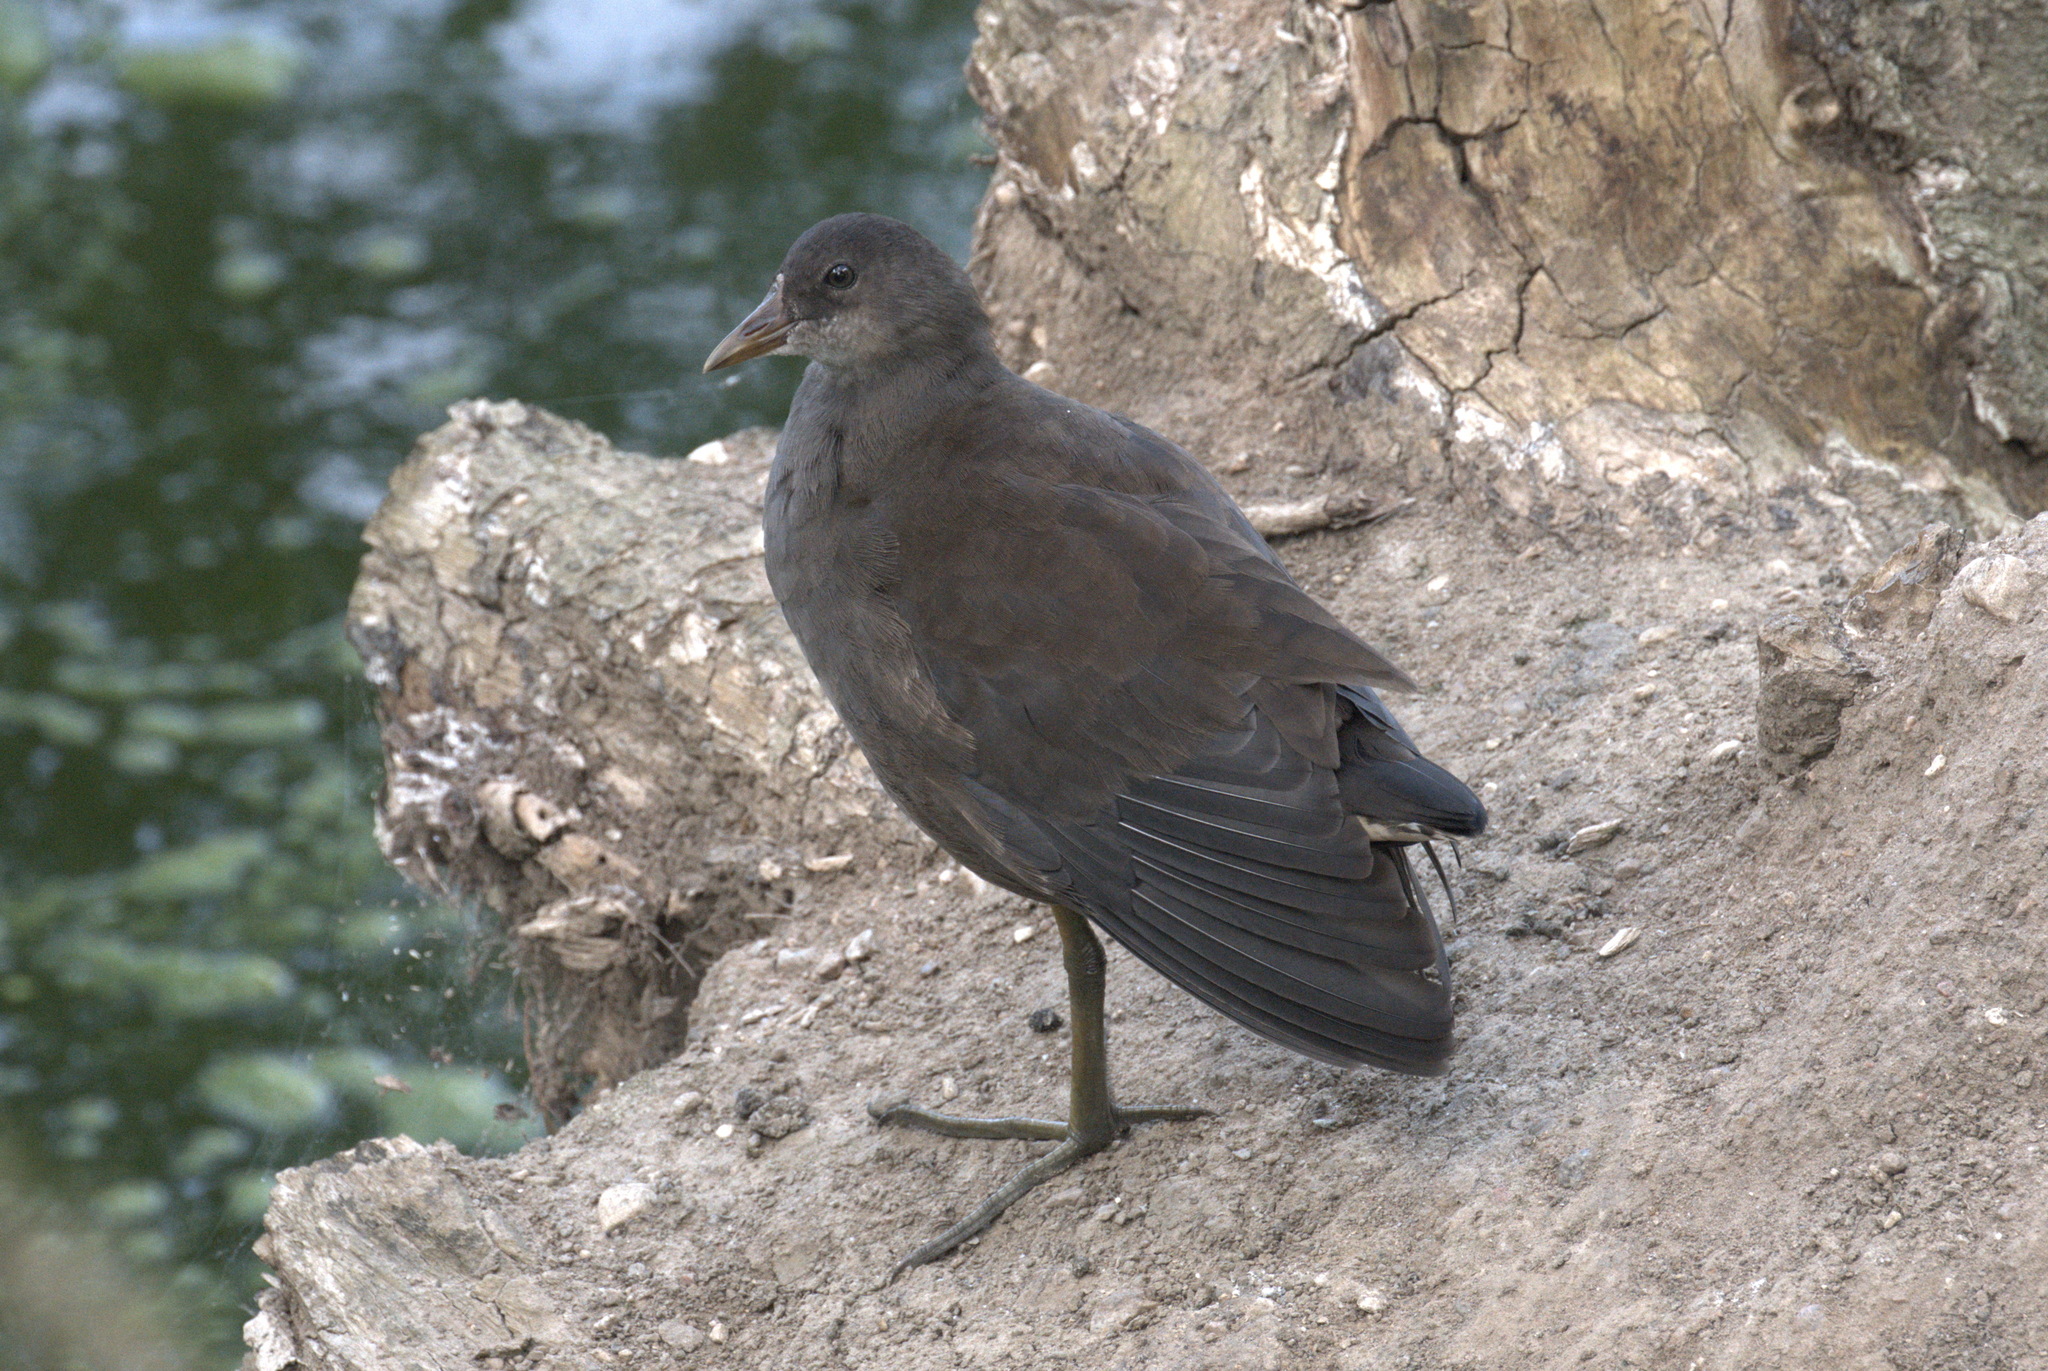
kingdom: Animalia
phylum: Chordata
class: Aves
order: Gruiformes
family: Rallidae
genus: Gallinula
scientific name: Gallinula chloropus
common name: Common moorhen
